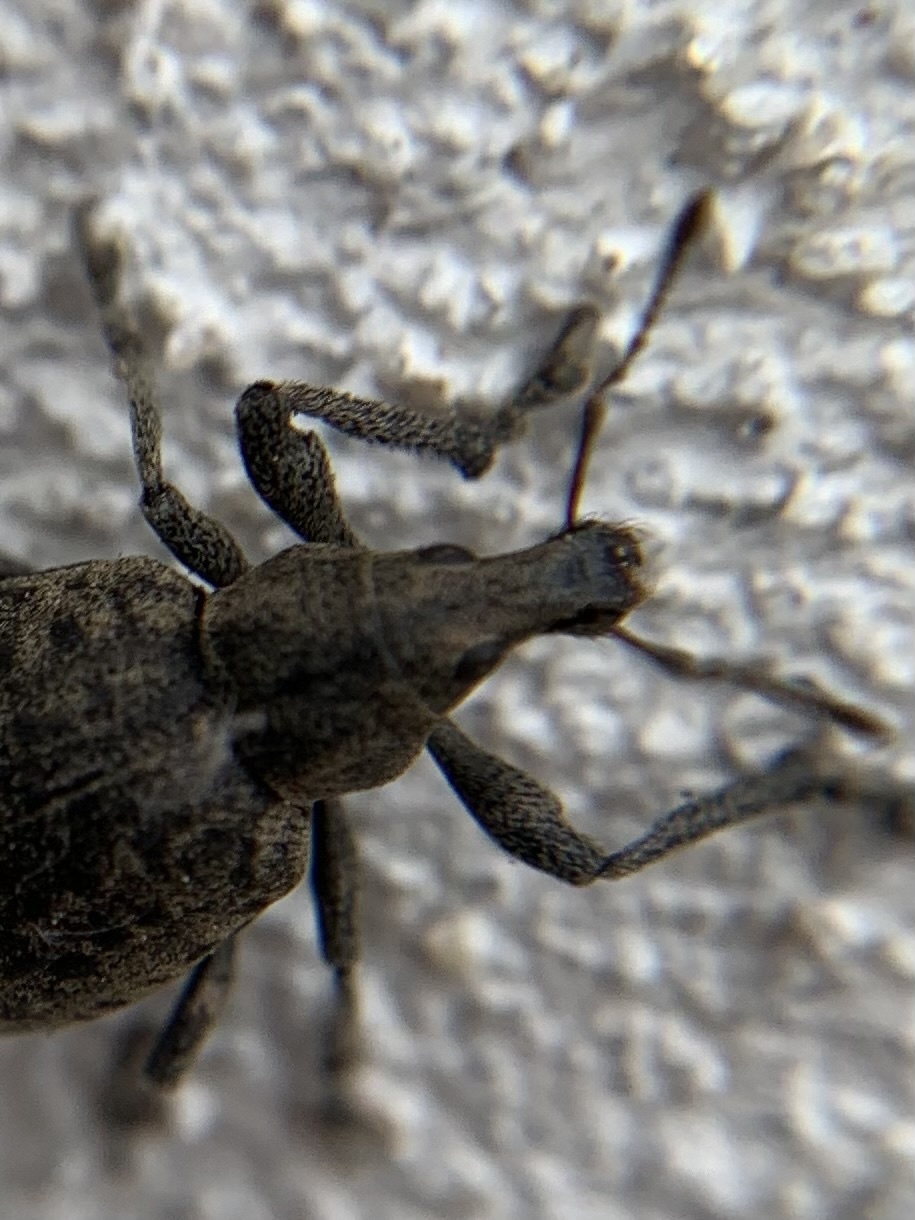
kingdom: Animalia
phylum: Arthropoda
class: Insecta
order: Coleoptera
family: Curculionidae
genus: Liophloeus
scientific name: Liophloeus tessulatus
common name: Weevil
